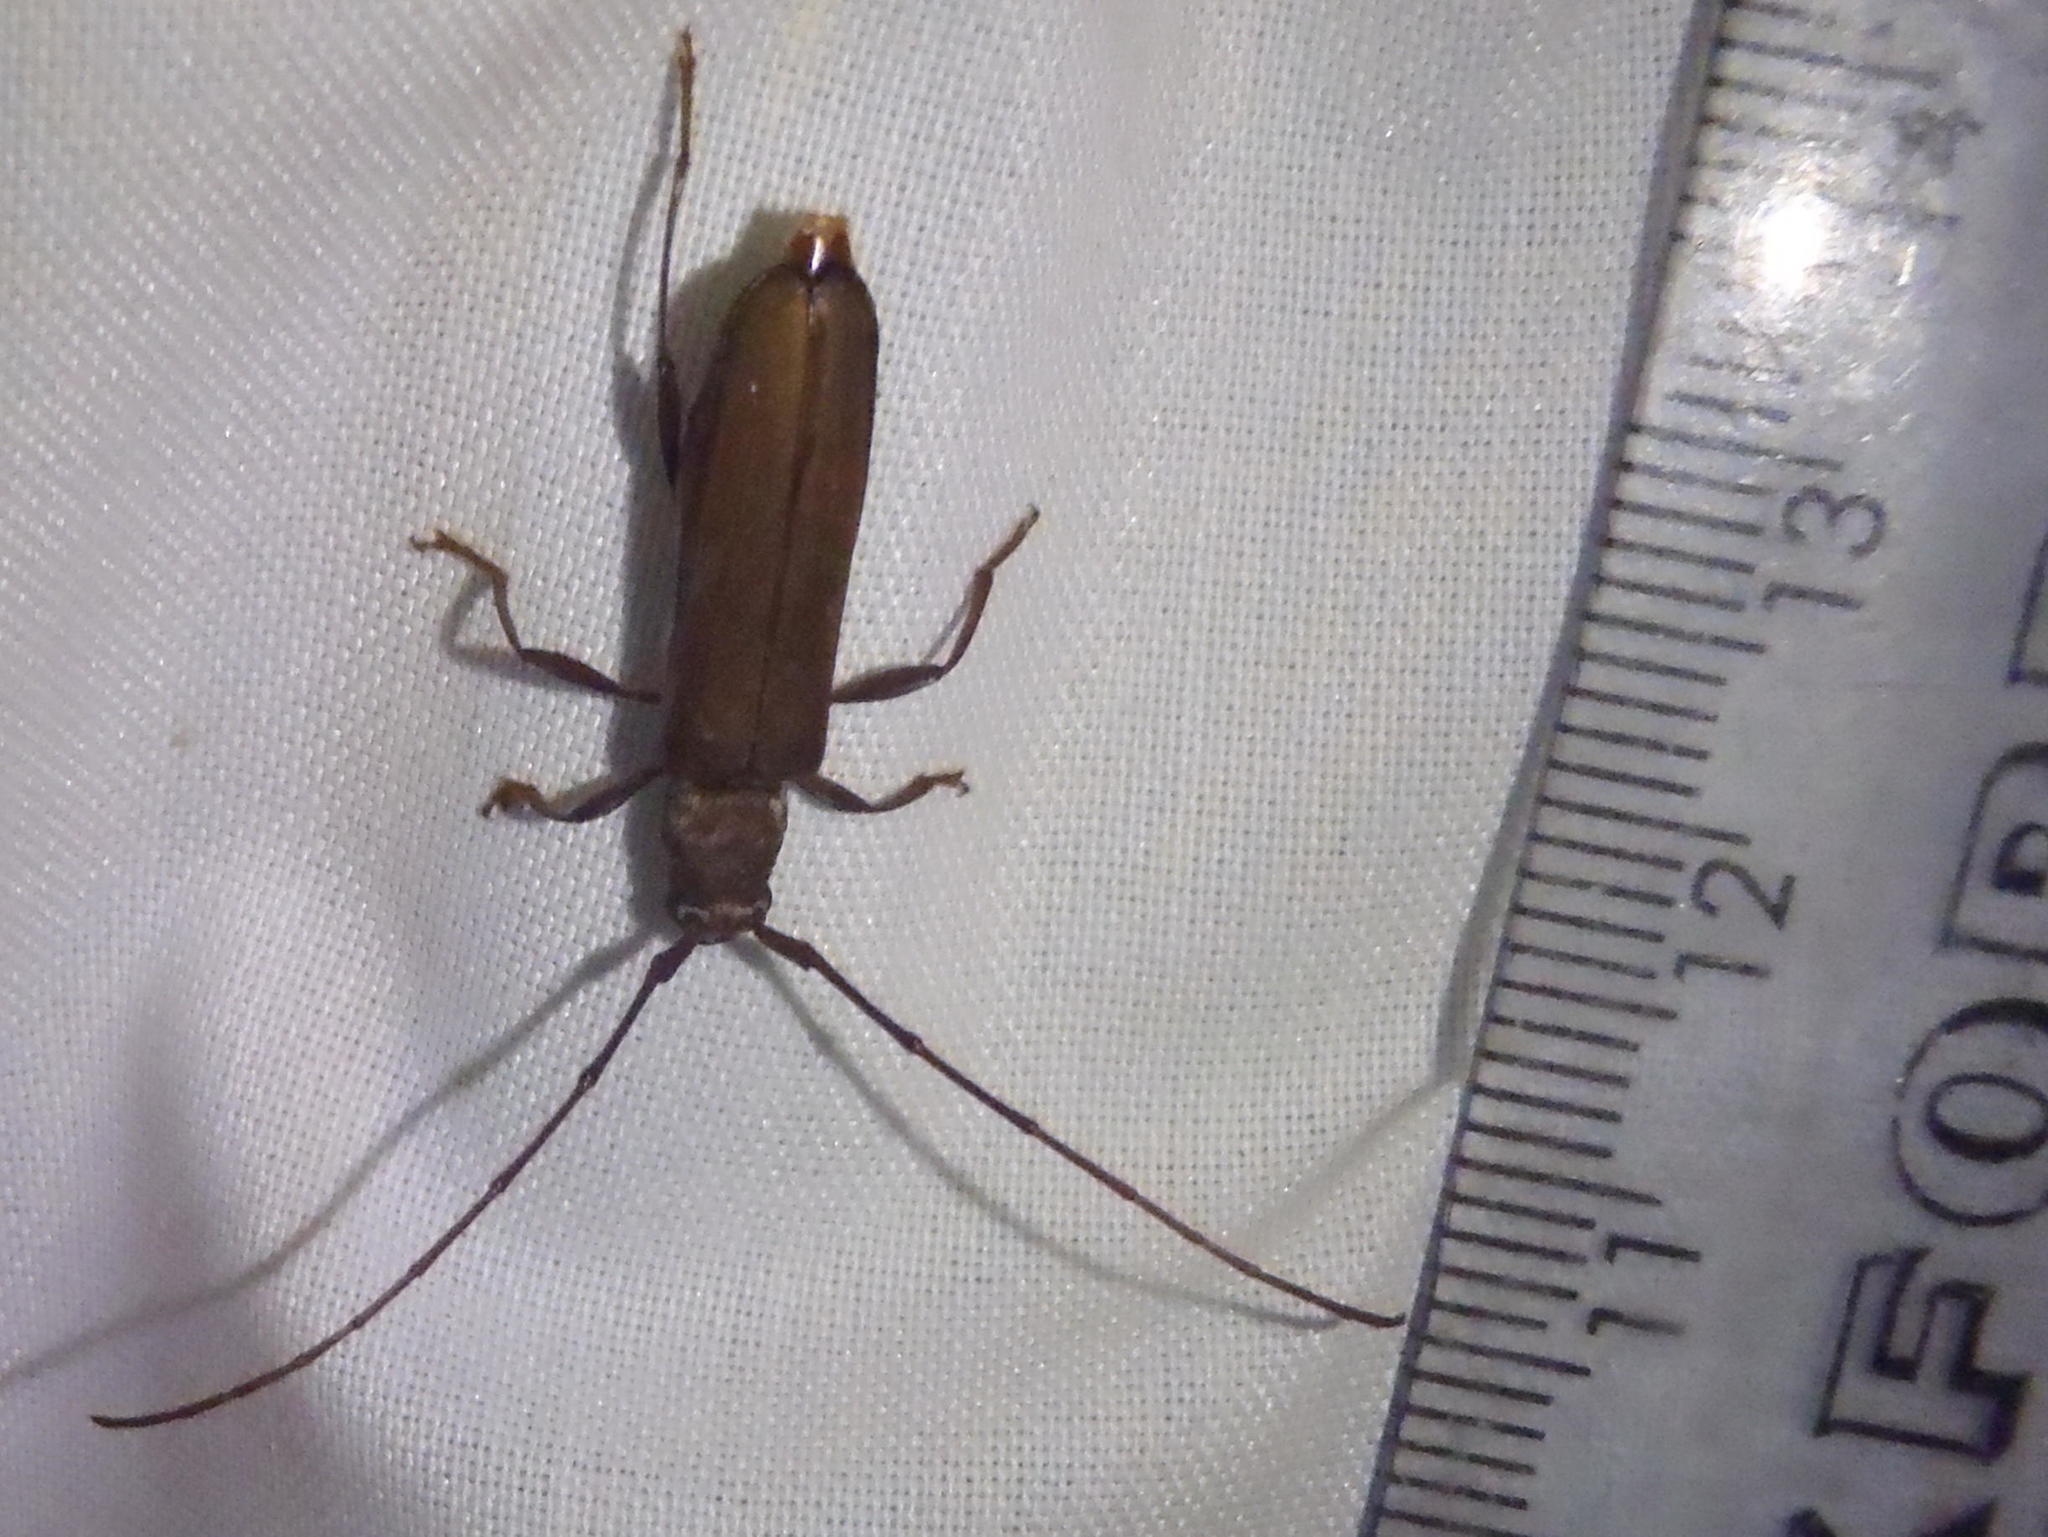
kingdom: Animalia
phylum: Arthropoda
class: Insecta
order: Coleoptera
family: Cerambycidae
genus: Xystrocera
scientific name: Xystrocera erosa
